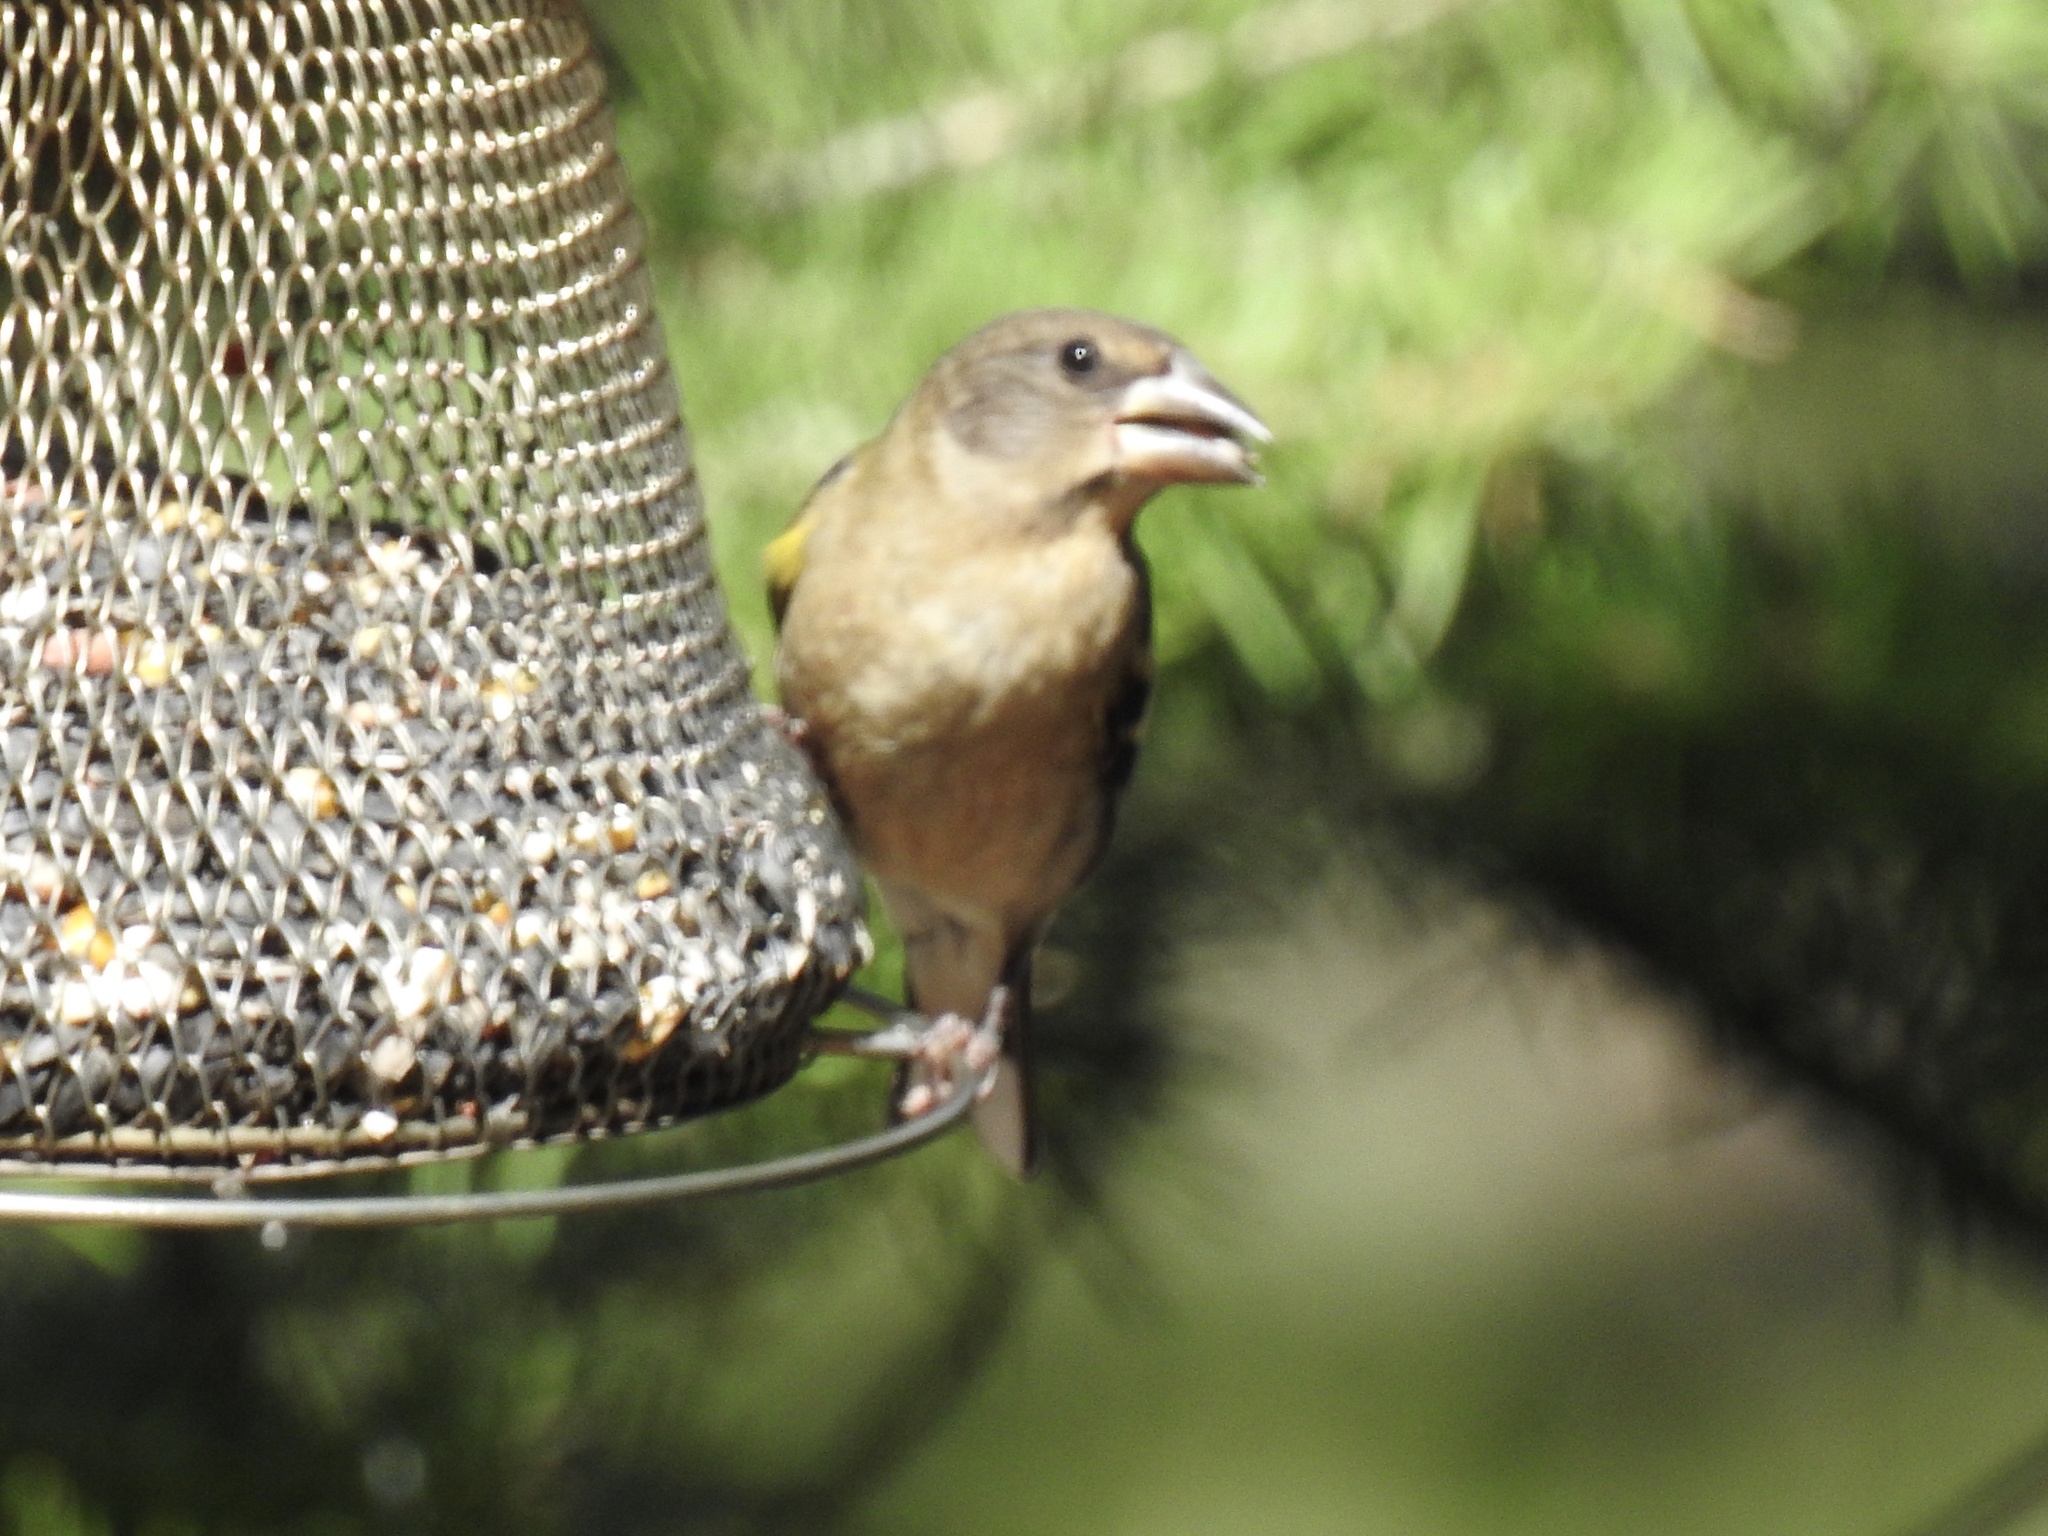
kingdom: Animalia
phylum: Chordata
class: Aves
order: Passeriformes
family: Fringillidae
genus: Hesperiphona
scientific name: Hesperiphona vespertina
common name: Evening grosbeak
